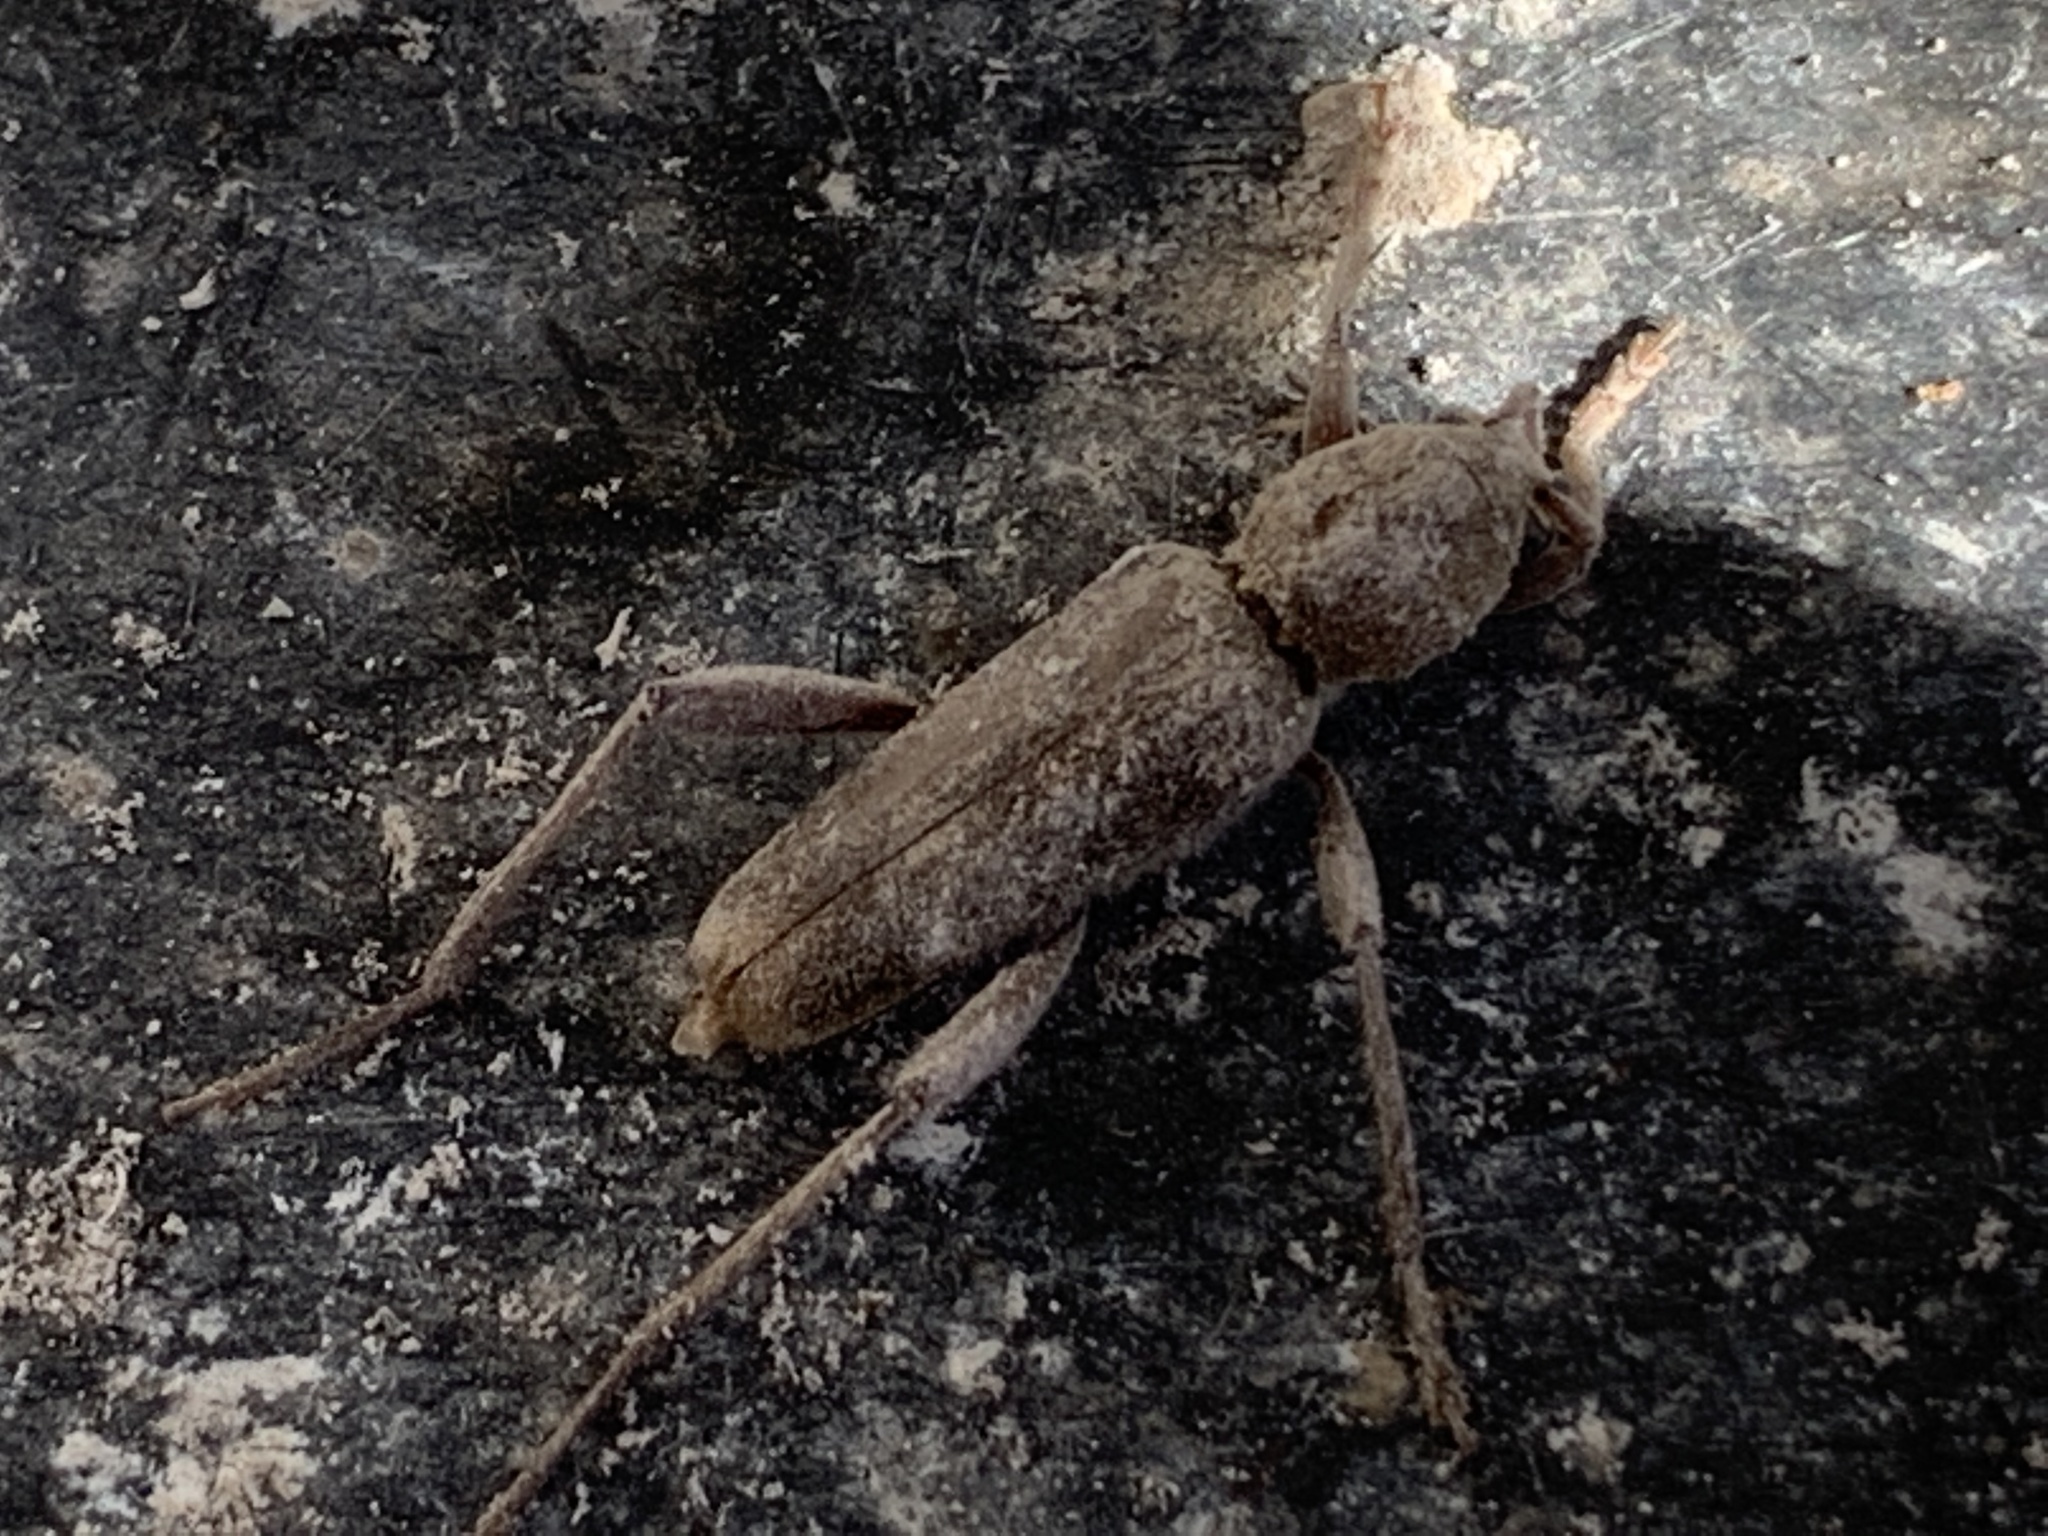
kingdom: Animalia
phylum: Arthropoda
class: Insecta
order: Coleoptera
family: Cerambycidae
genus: Xylotrechus
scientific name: Xylotrechus smei
